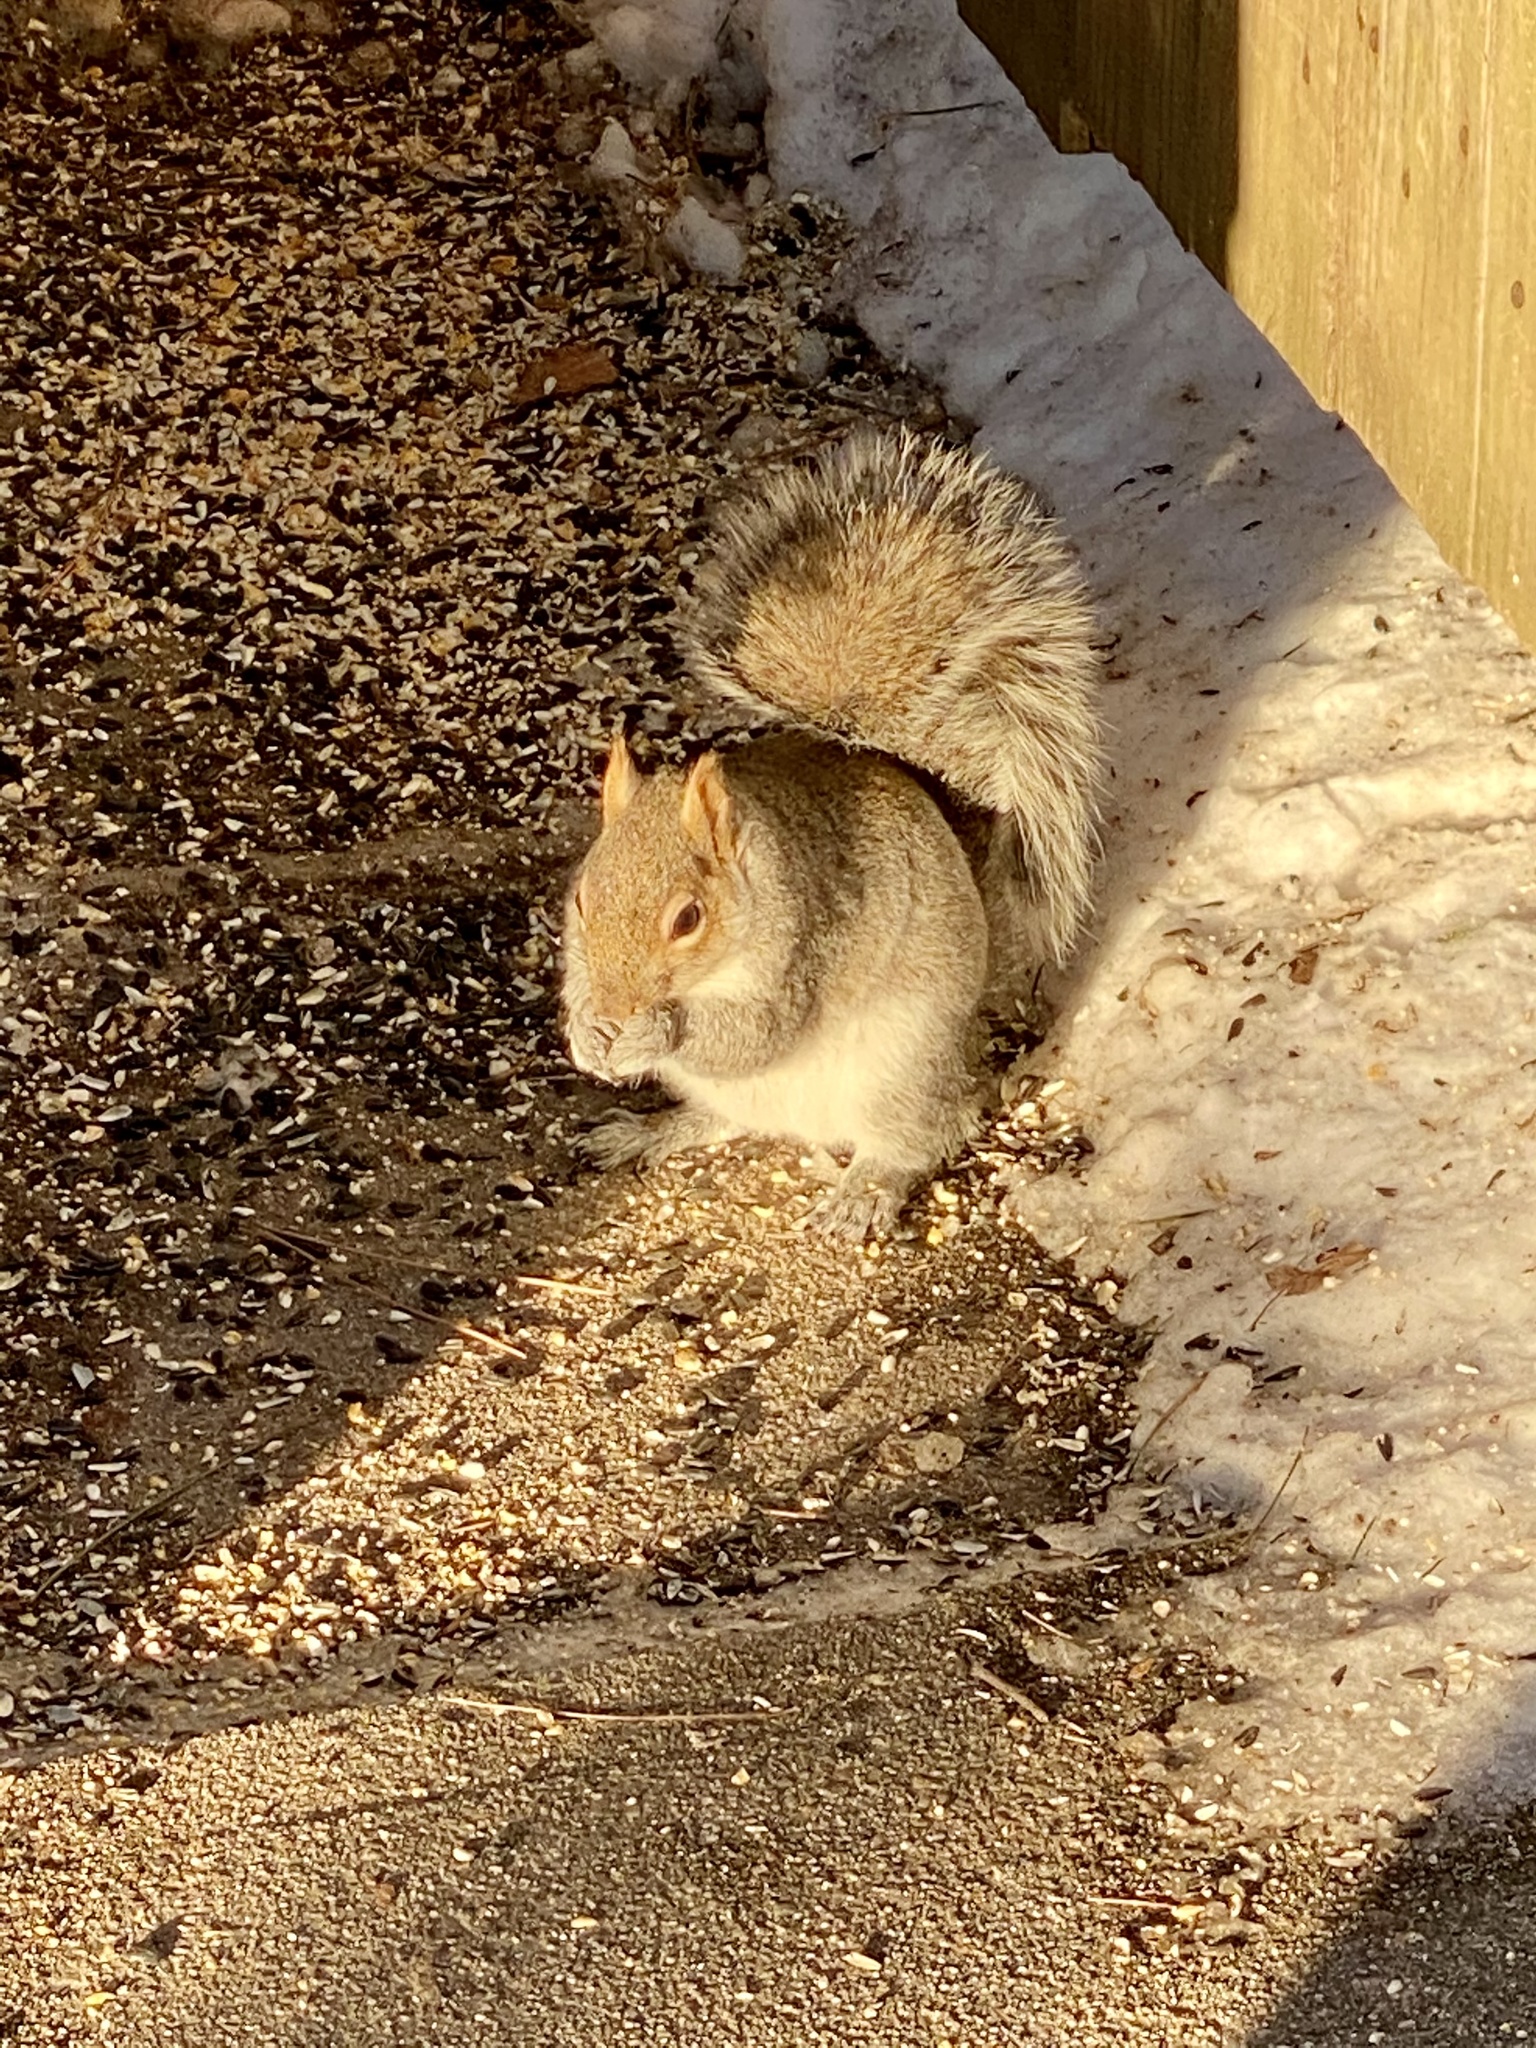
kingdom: Animalia
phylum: Chordata
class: Mammalia
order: Rodentia
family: Sciuridae
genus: Sciurus
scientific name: Sciurus carolinensis
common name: Eastern gray squirrel
